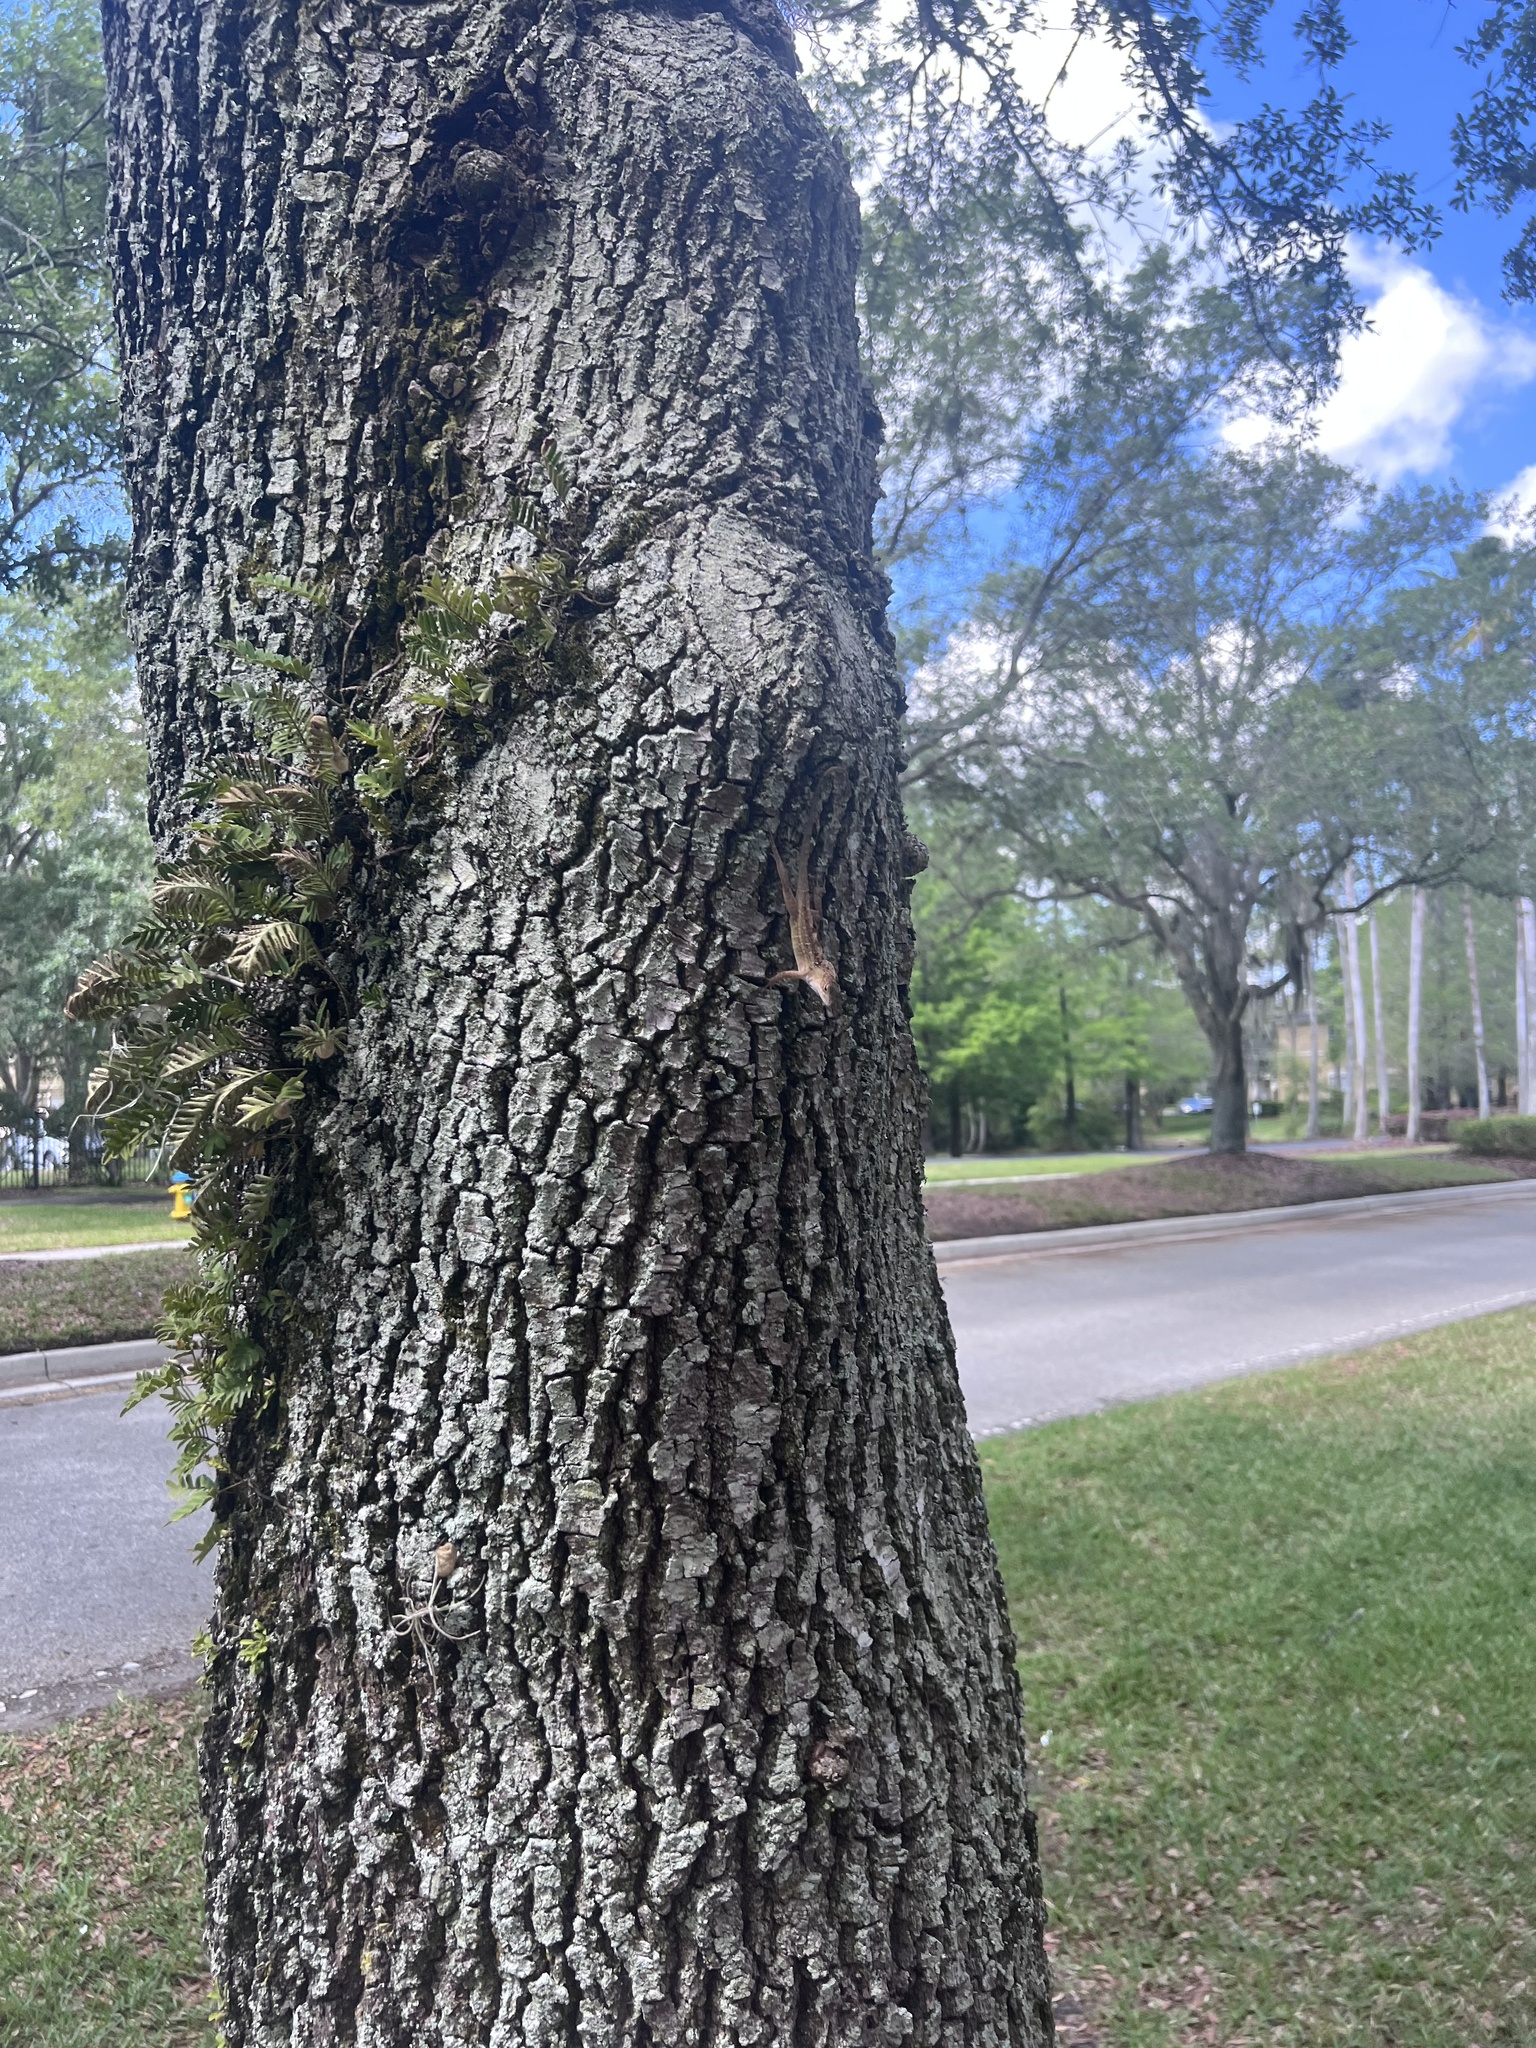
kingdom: Animalia
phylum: Chordata
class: Squamata
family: Dactyloidae
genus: Anolis
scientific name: Anolis sagrei
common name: Brown anole
